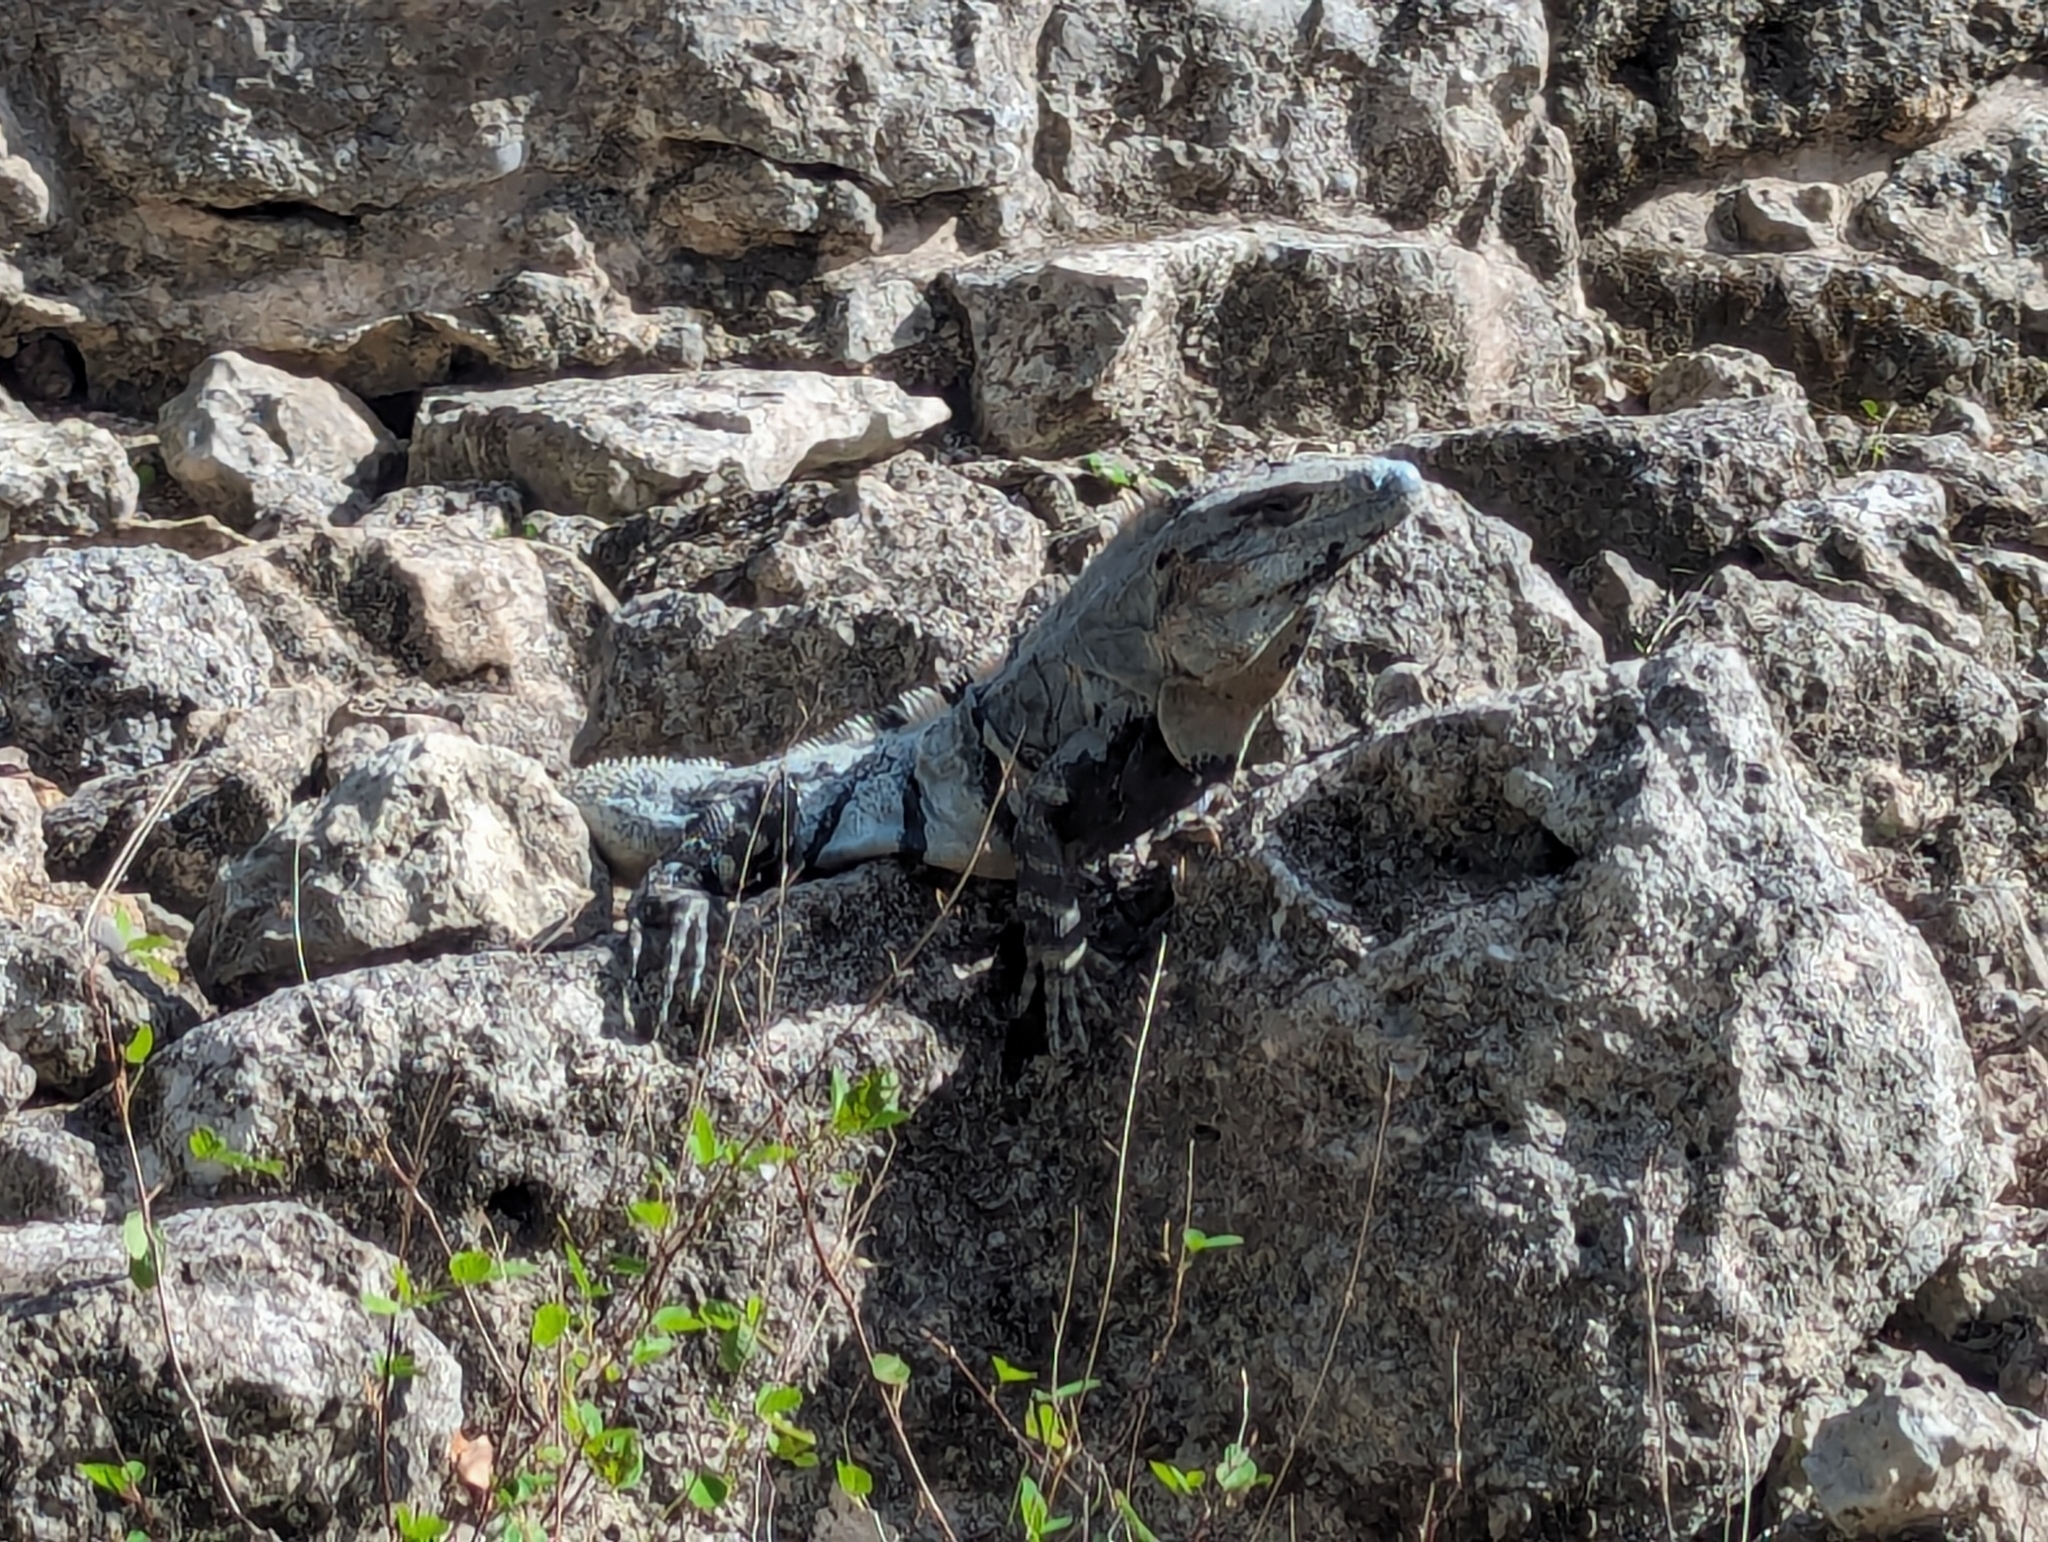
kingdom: Animalia
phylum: Chordata
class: Squamata
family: Iguanidae
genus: Ctenosaura
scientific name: Ctenosaura similis
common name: Black spiny-tailed iguana
